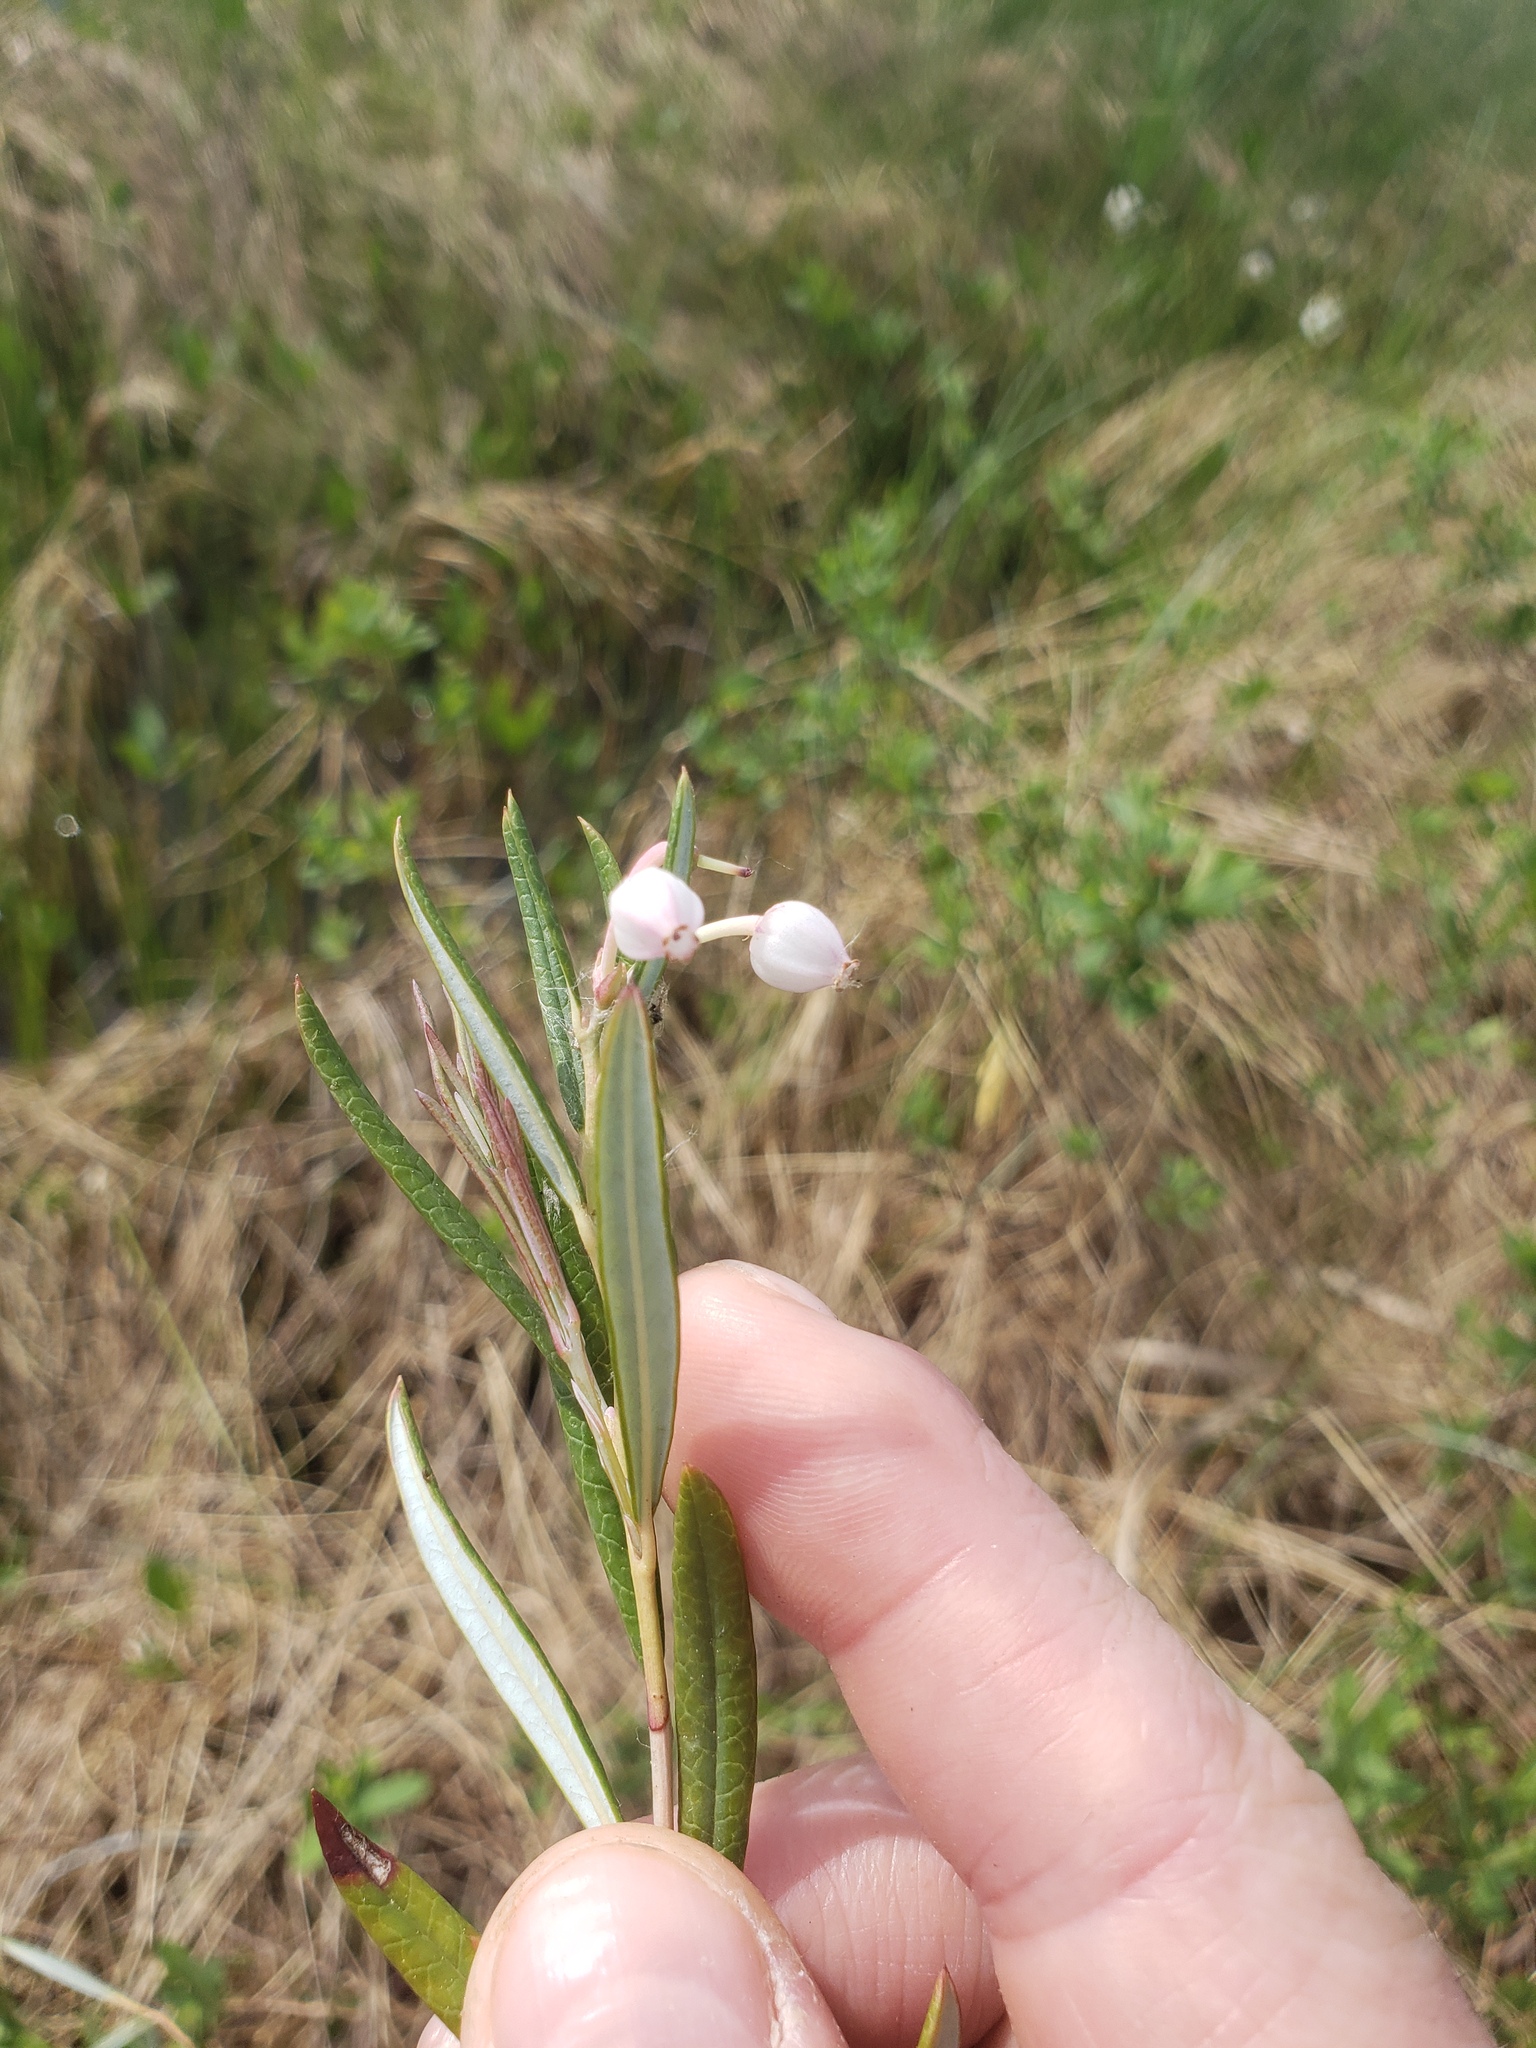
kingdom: Plantae
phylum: Tracheophyta
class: Magnoliopsida
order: Ericales
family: Ericaceae
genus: Andromeda
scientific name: Andromeda polifolia
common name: Bog-rosemary
